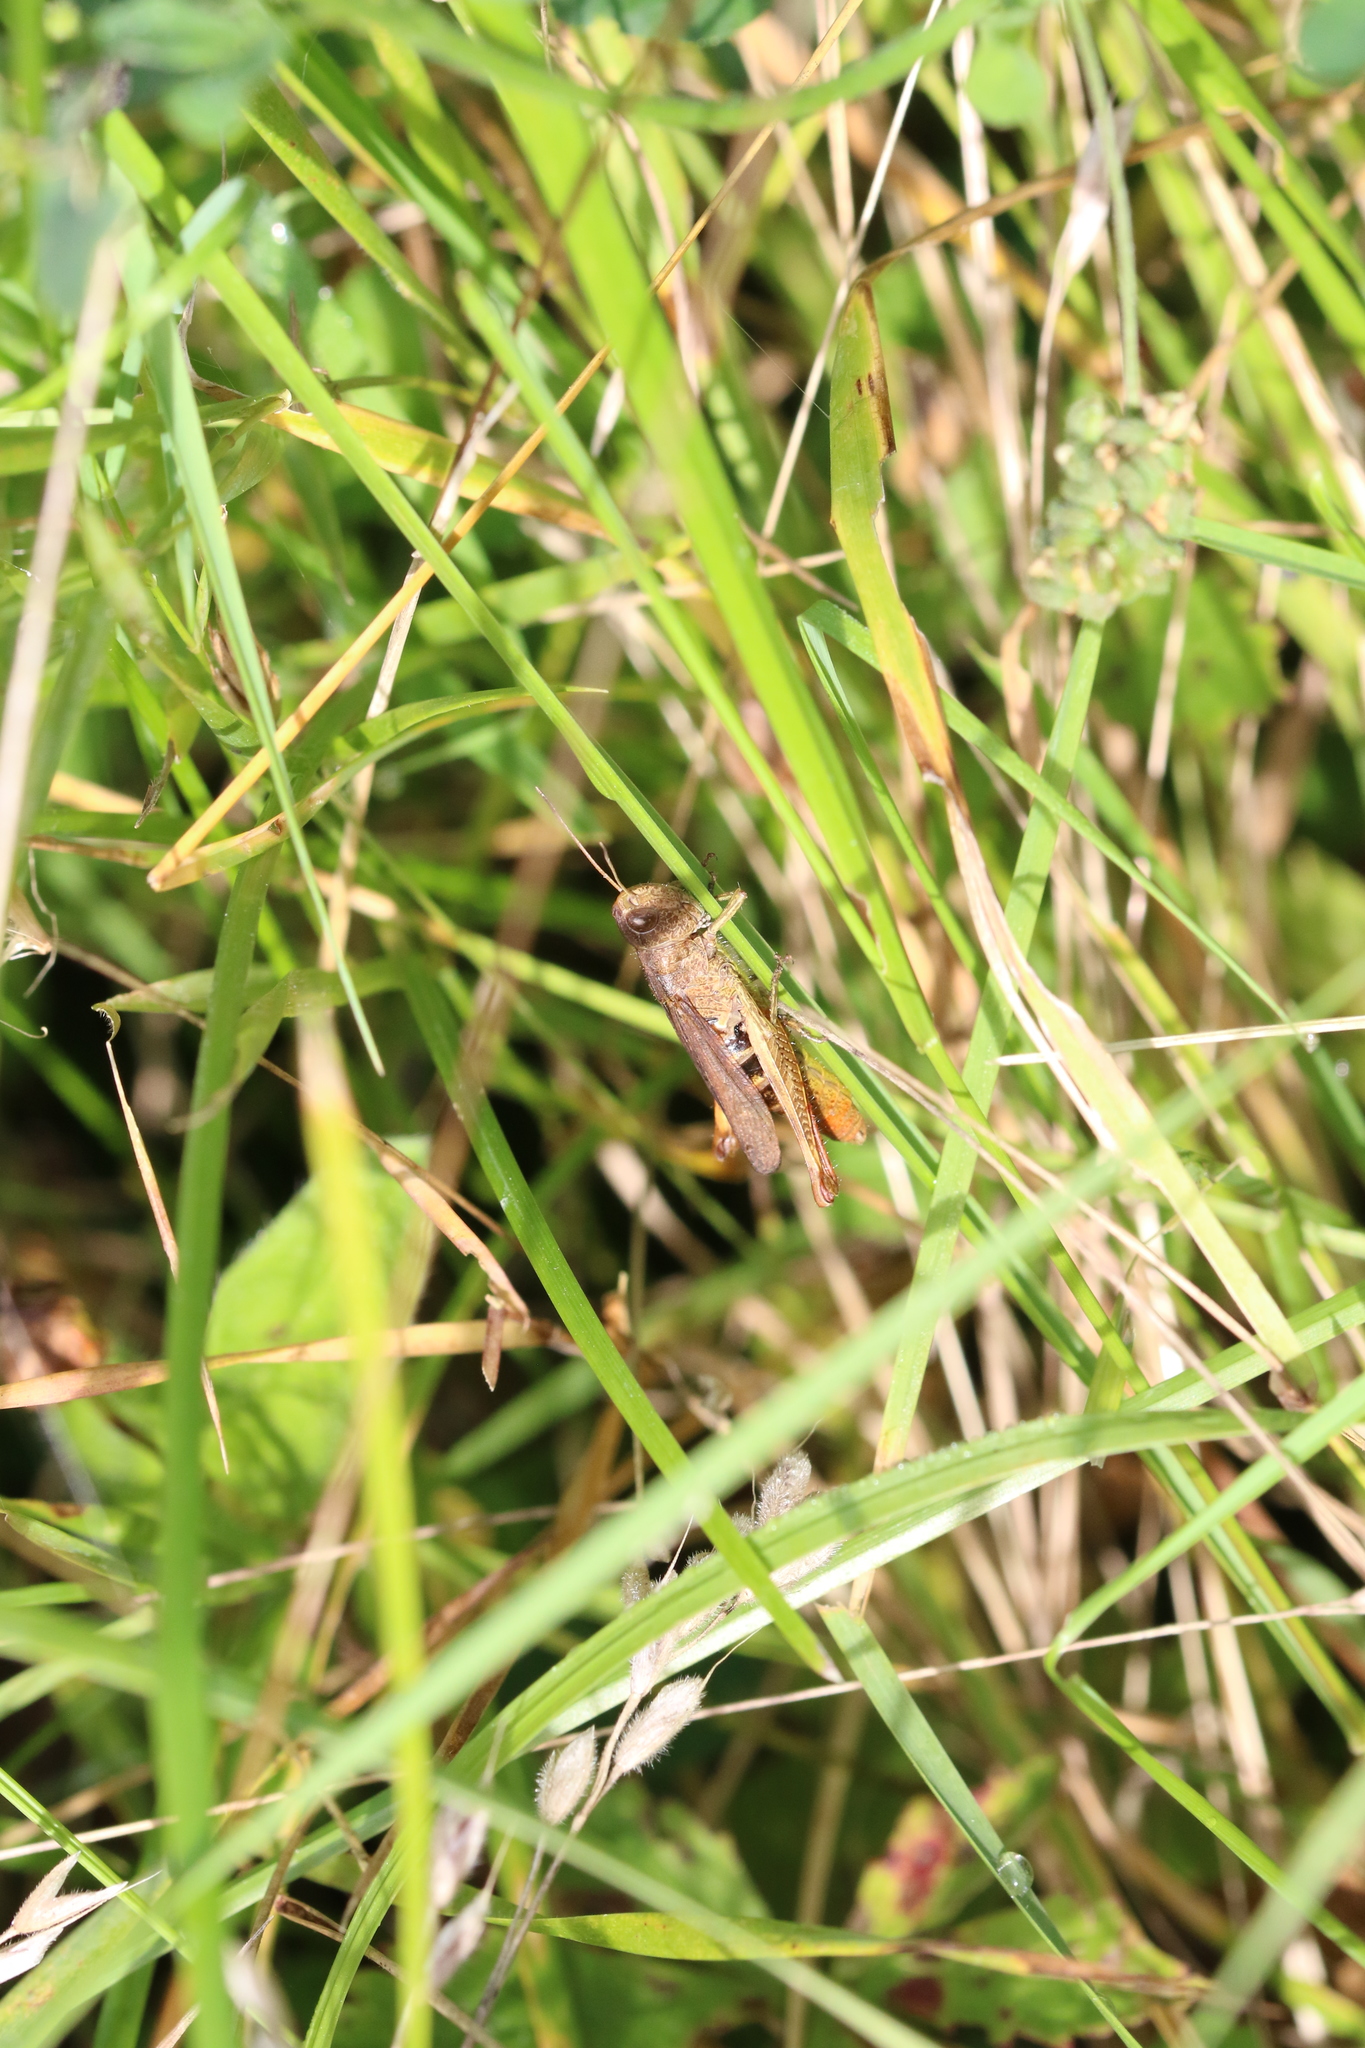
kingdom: Animalia
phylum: Arthropoda
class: Insecta
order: Orthoptera
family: Acrididae
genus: Gomphocerippus
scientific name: Gomphocerippus rufus
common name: Rufous grasshopper
